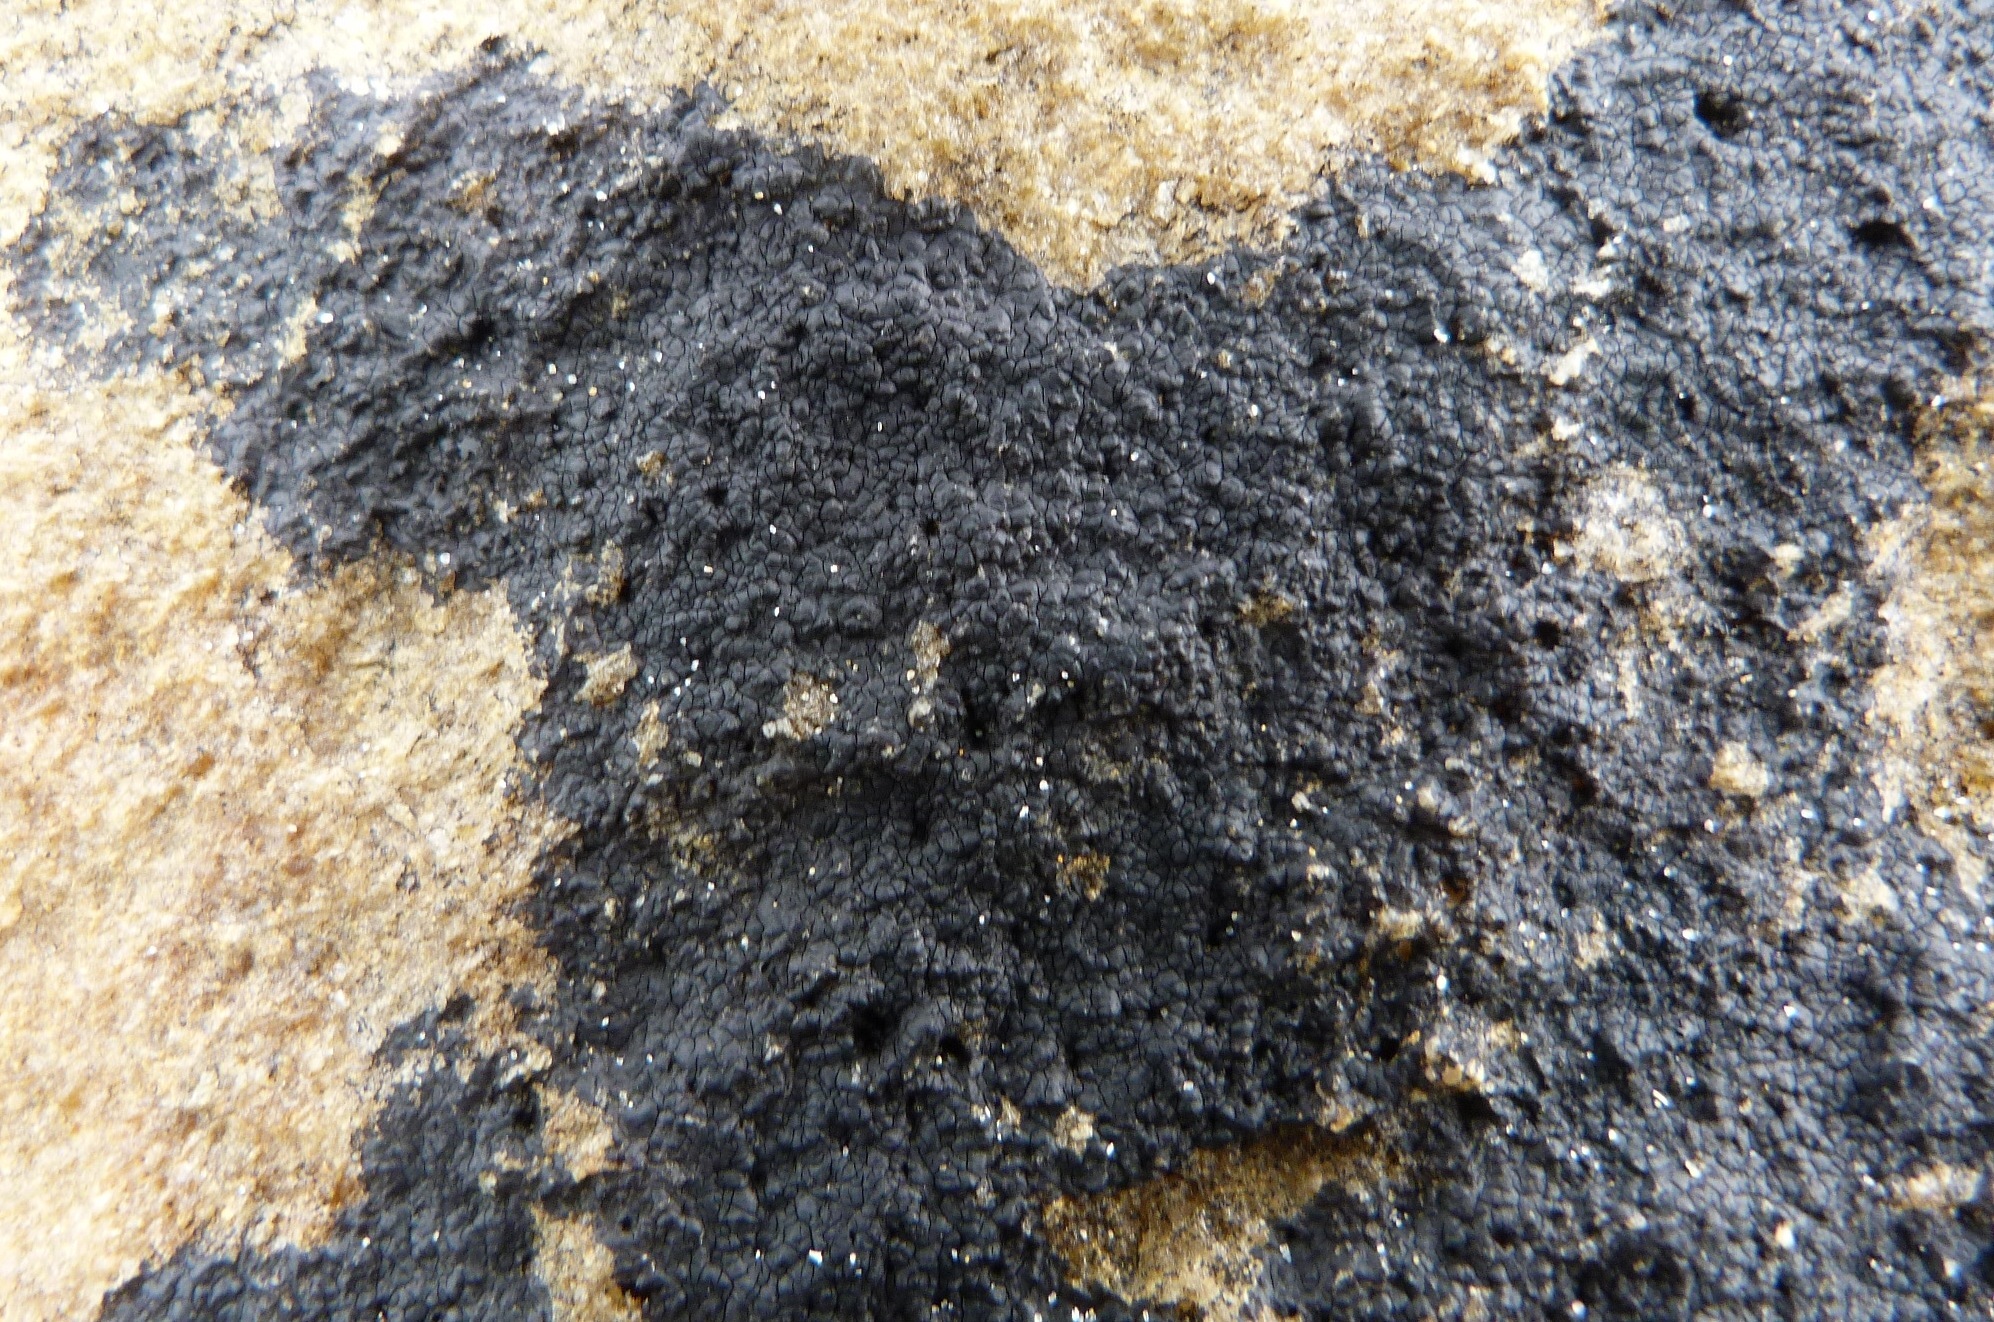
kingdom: Fungi
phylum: Ascomycota
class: Eurotiomycetes
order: Verrucariales
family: Verrucariaceae
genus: Hydropunctaria
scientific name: Hydropunctaria maura
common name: Tar lichen
